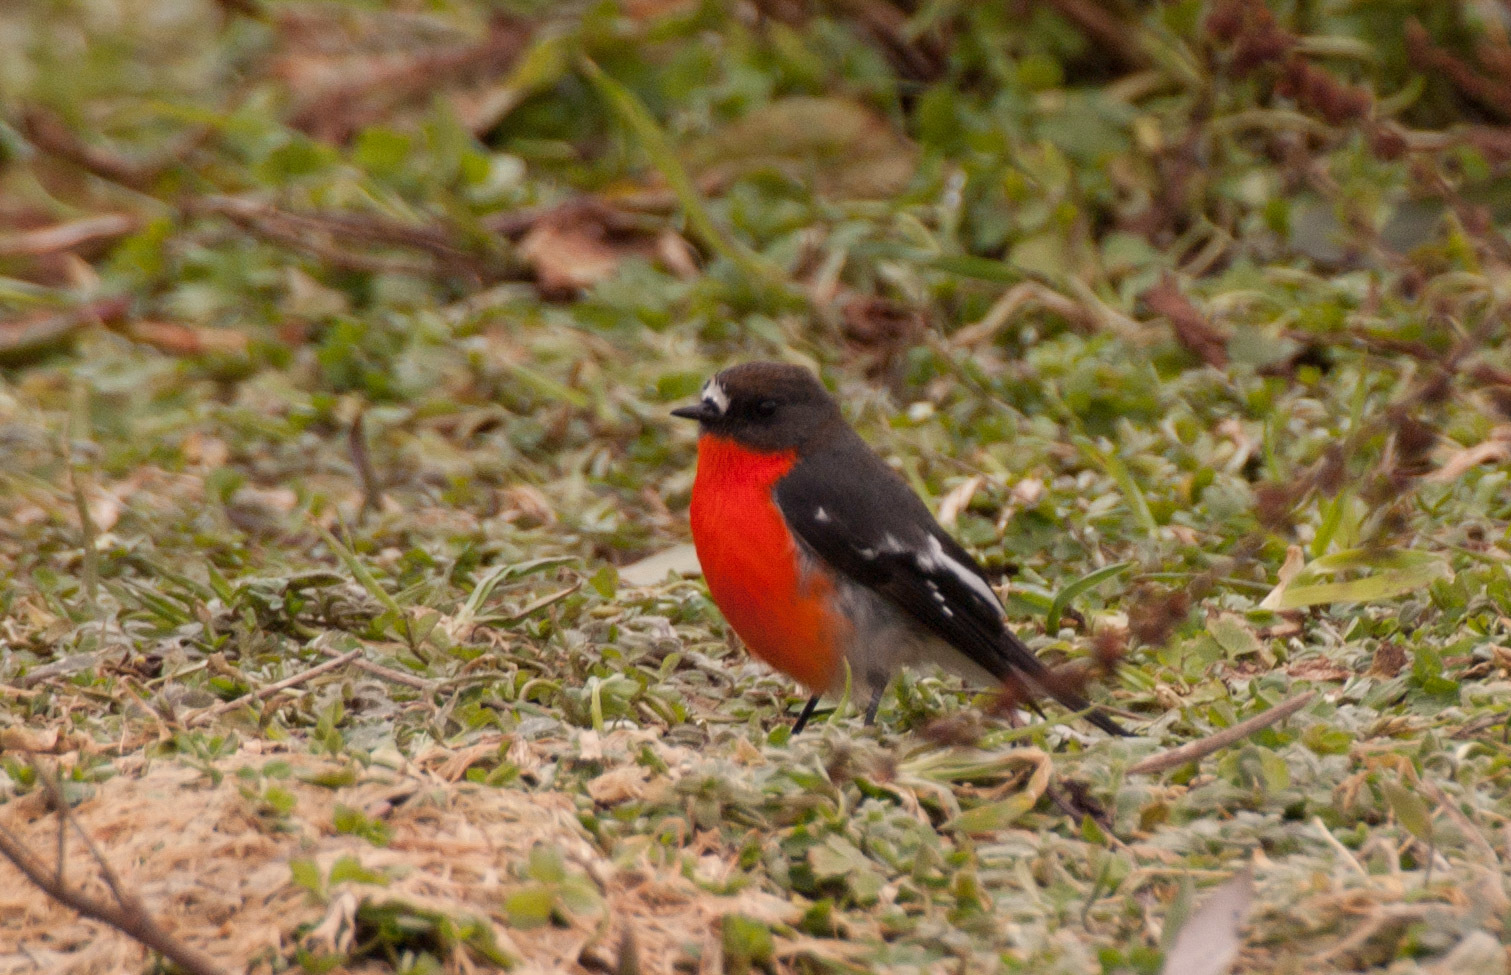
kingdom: Animalia
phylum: Chordata
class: Aves
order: Passeriformes
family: Petroicidae
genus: Petroica
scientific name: Petroica phoenicea
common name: Flame robin
